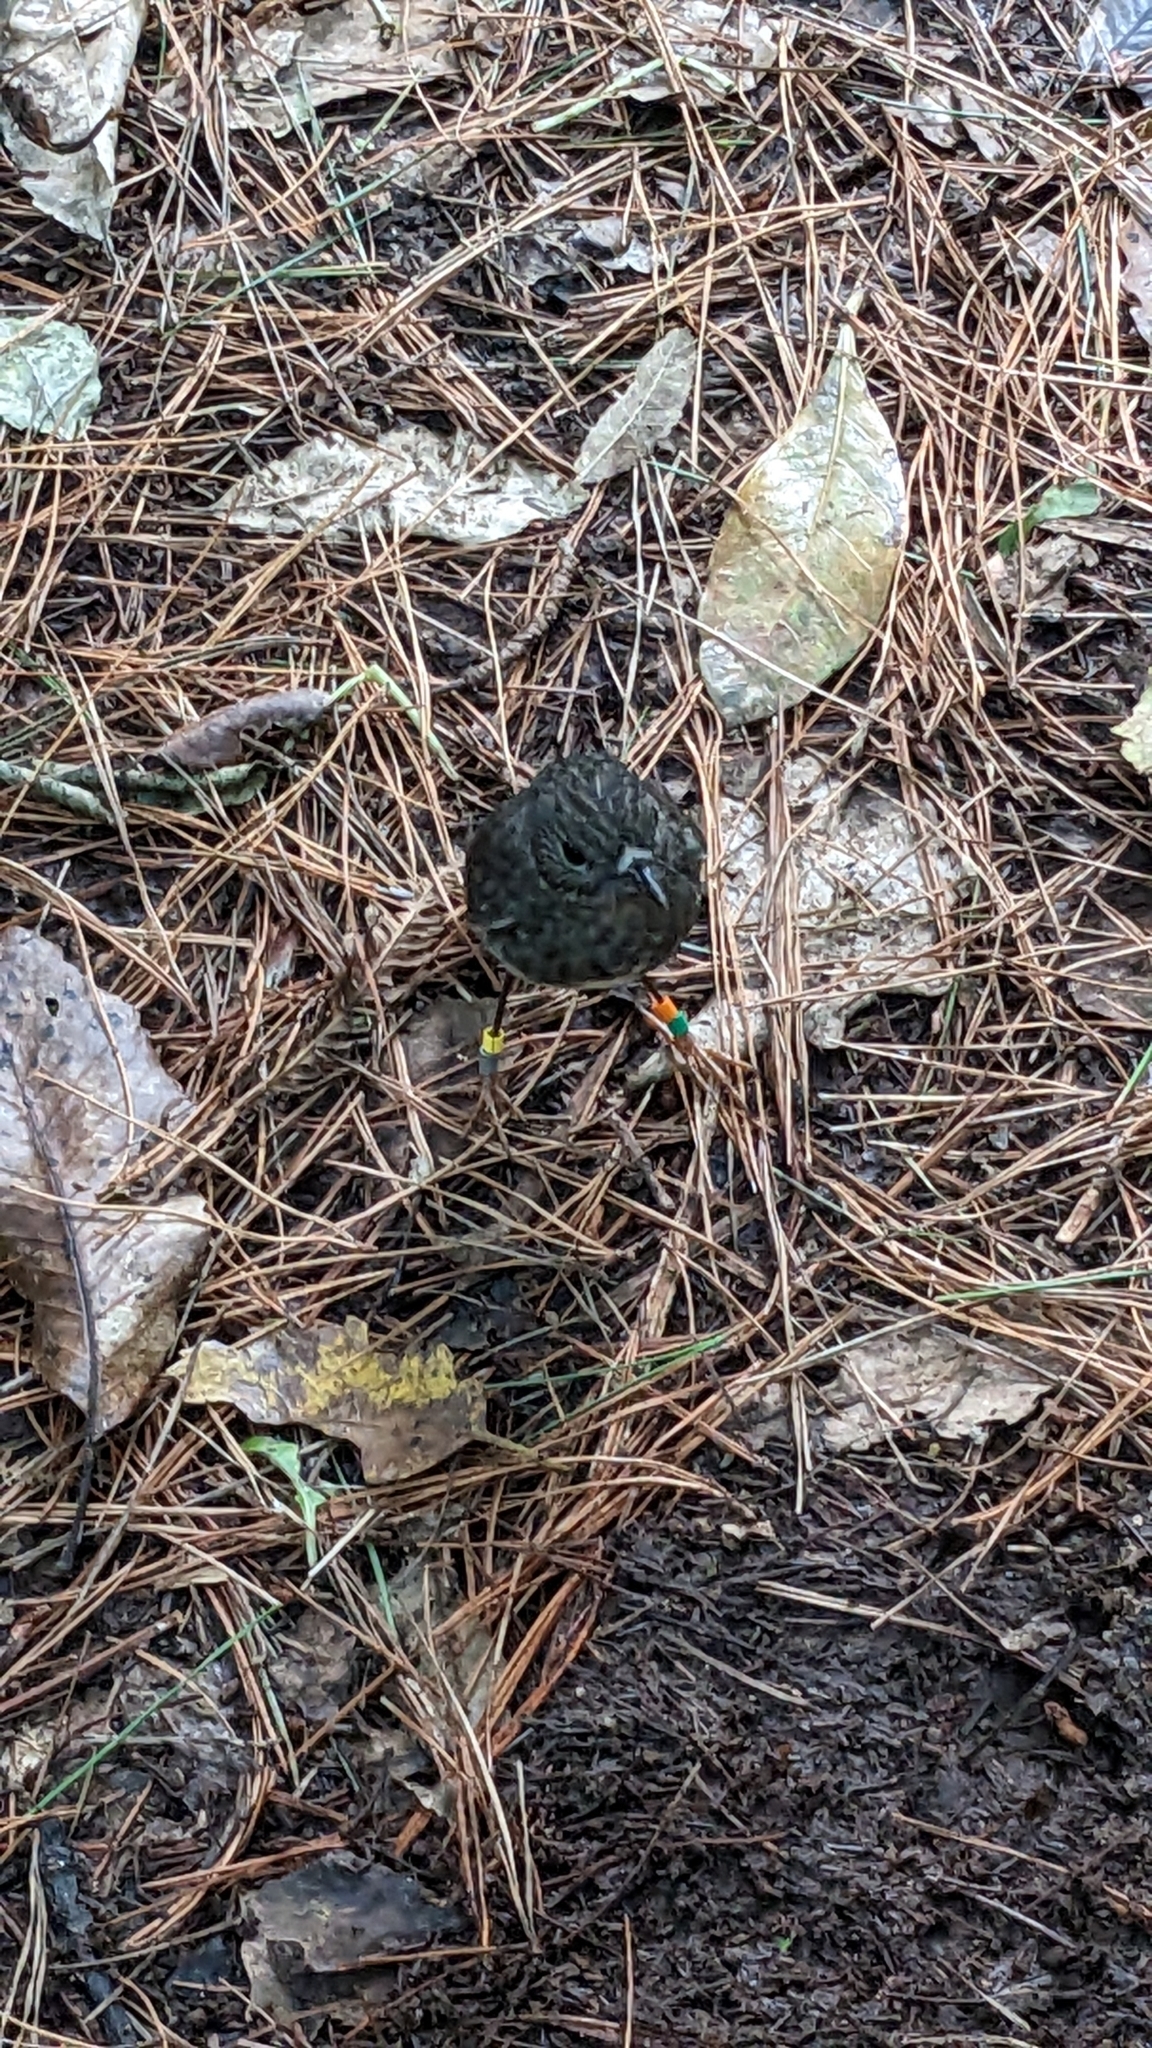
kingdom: Animalia
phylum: Chordata
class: Aves
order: Passeriformes
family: Petroicidae
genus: Petroica
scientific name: Petroica australis
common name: New zealand robin
